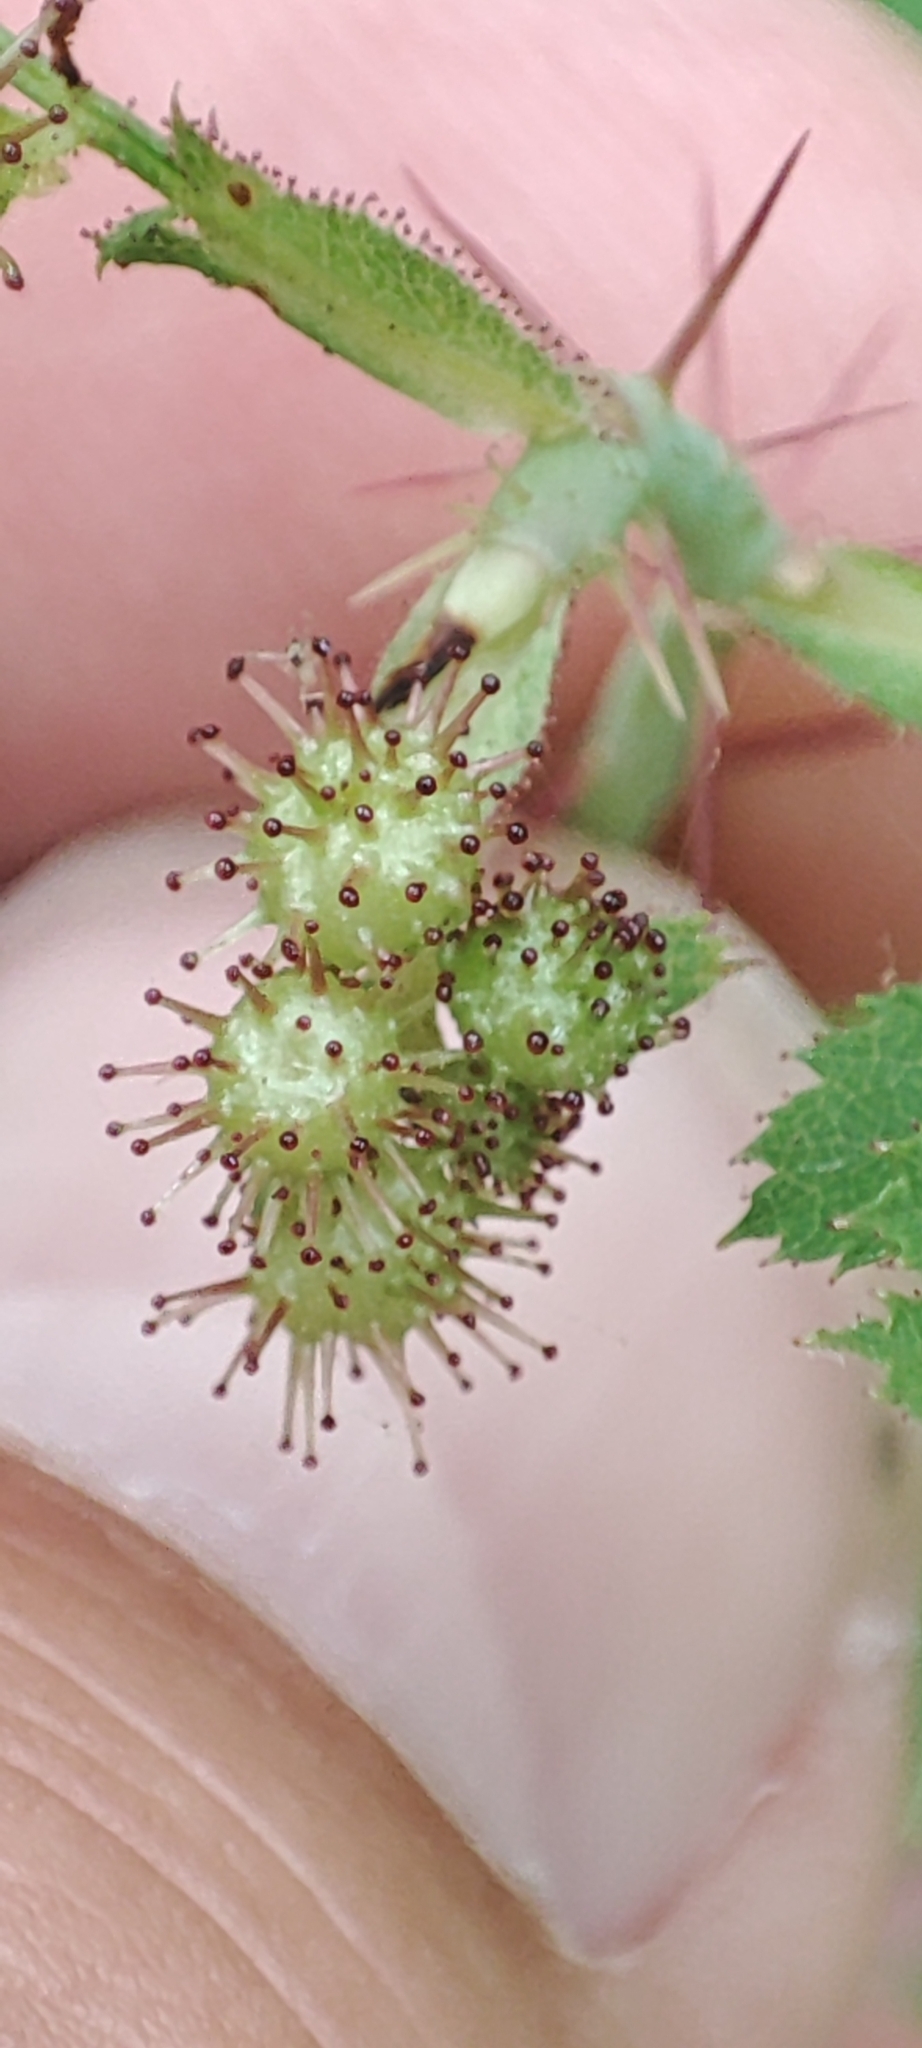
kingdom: Animalia
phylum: Arthropoda
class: Insecta
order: Hymenoptera
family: Cynipidae
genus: Diplolepis
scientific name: Diplolepis polita
